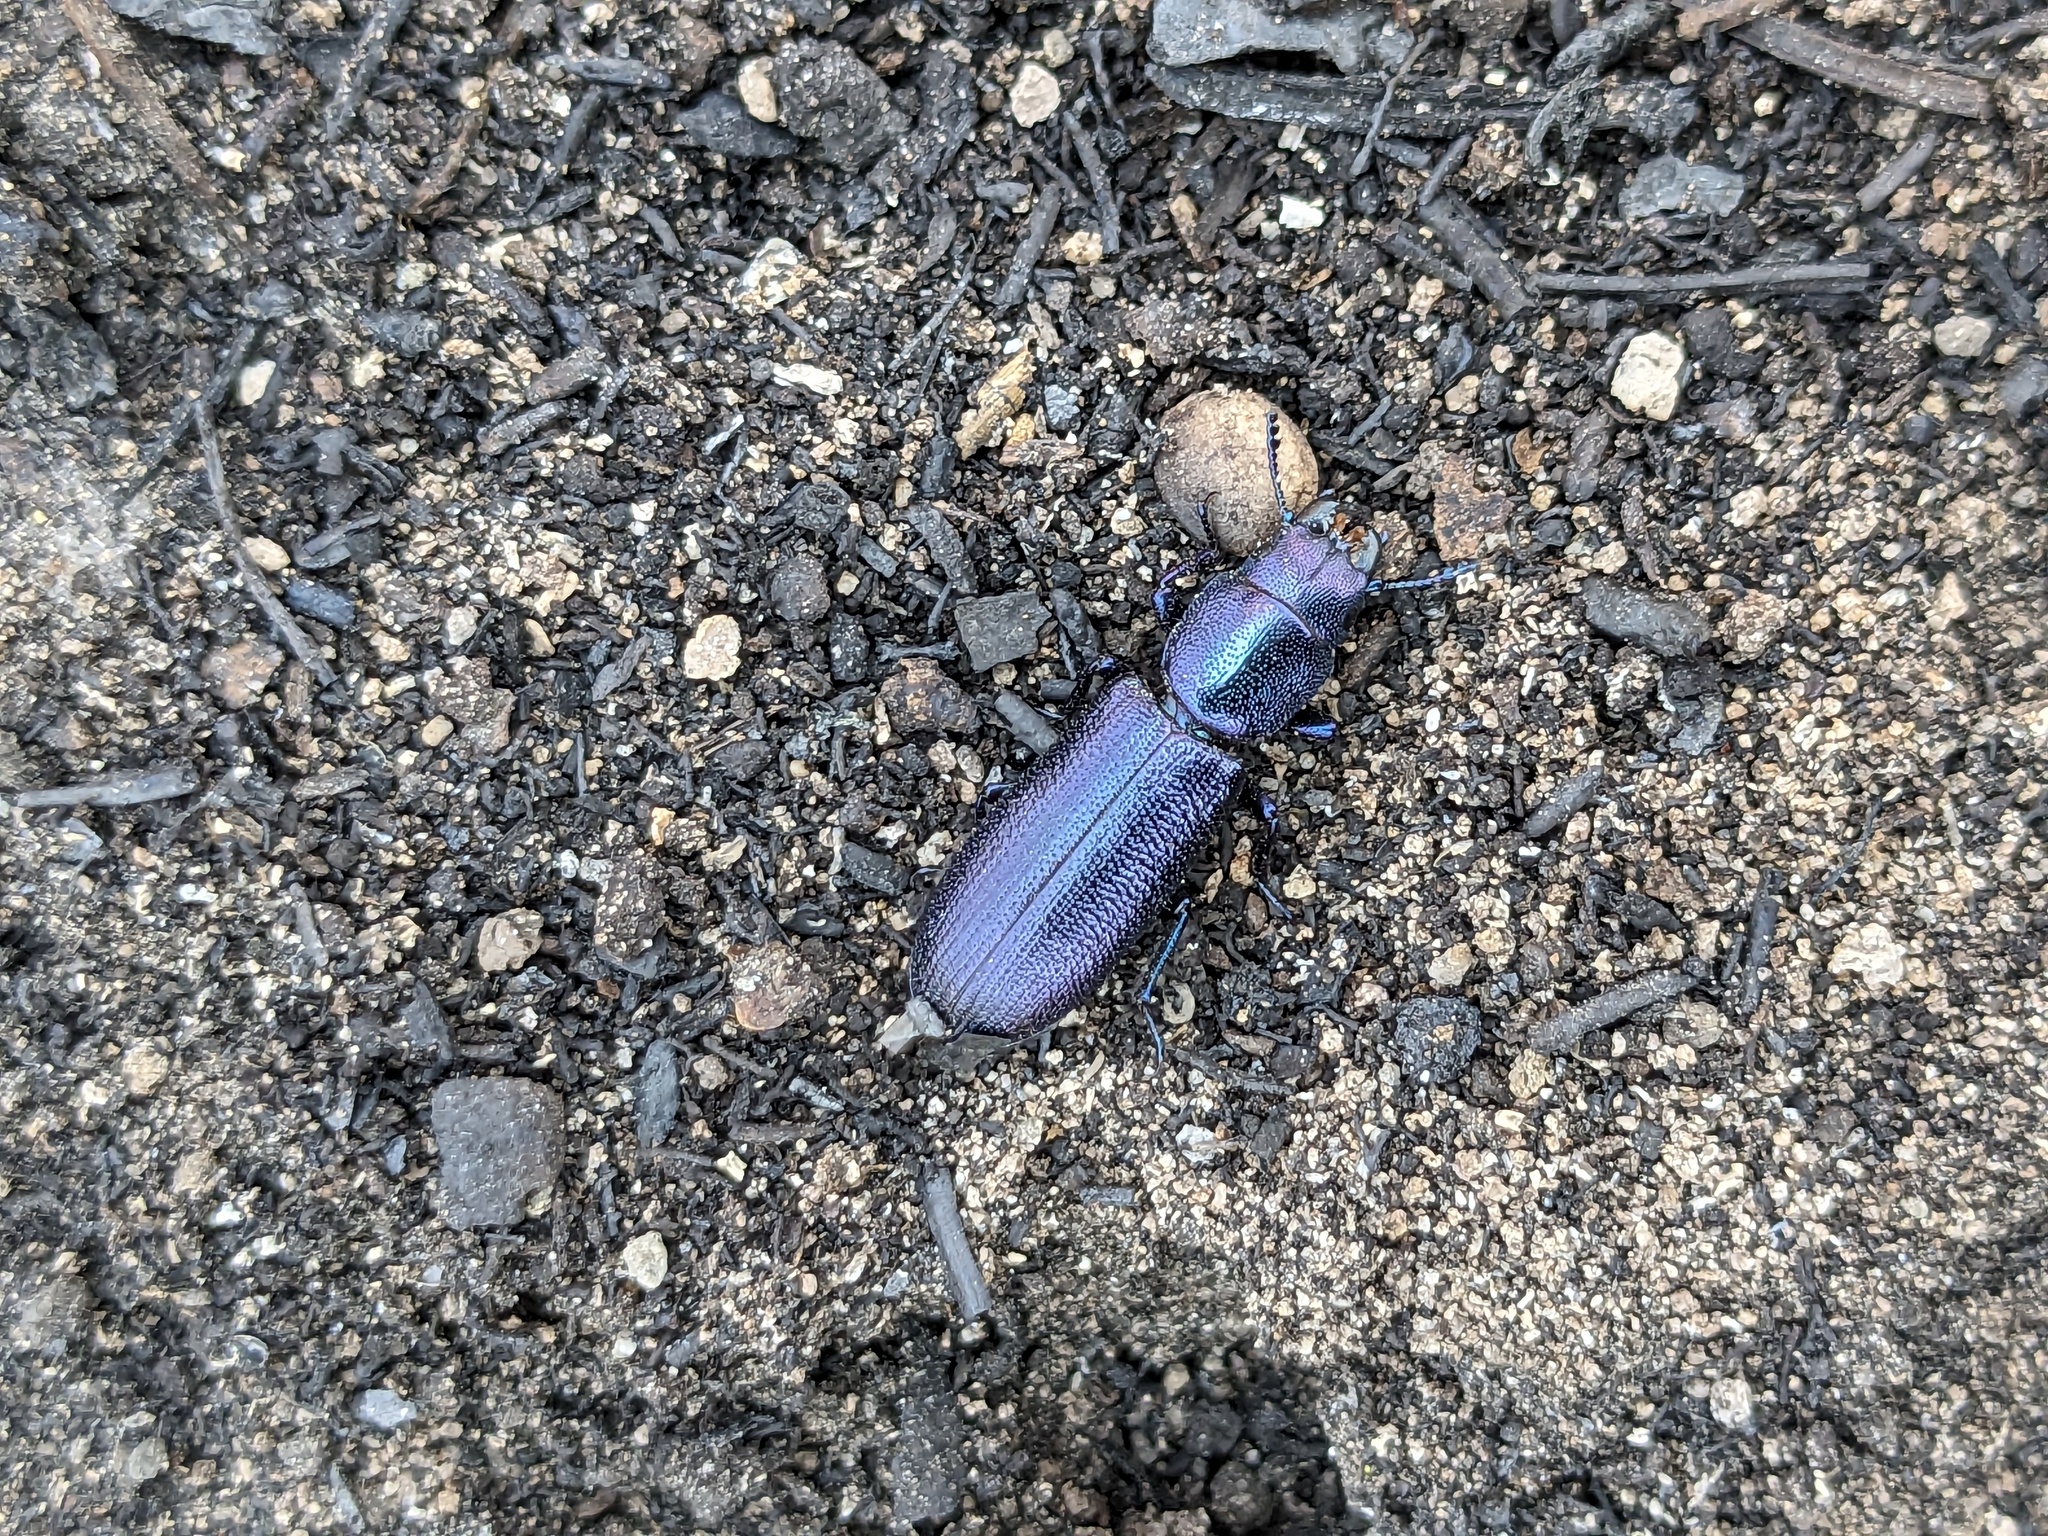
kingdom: Animalia
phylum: Arthropoda
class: Insecta
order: Coleoptera
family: Trogossitidae
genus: Temnoscheila
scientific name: Temnoscheila caerulea
